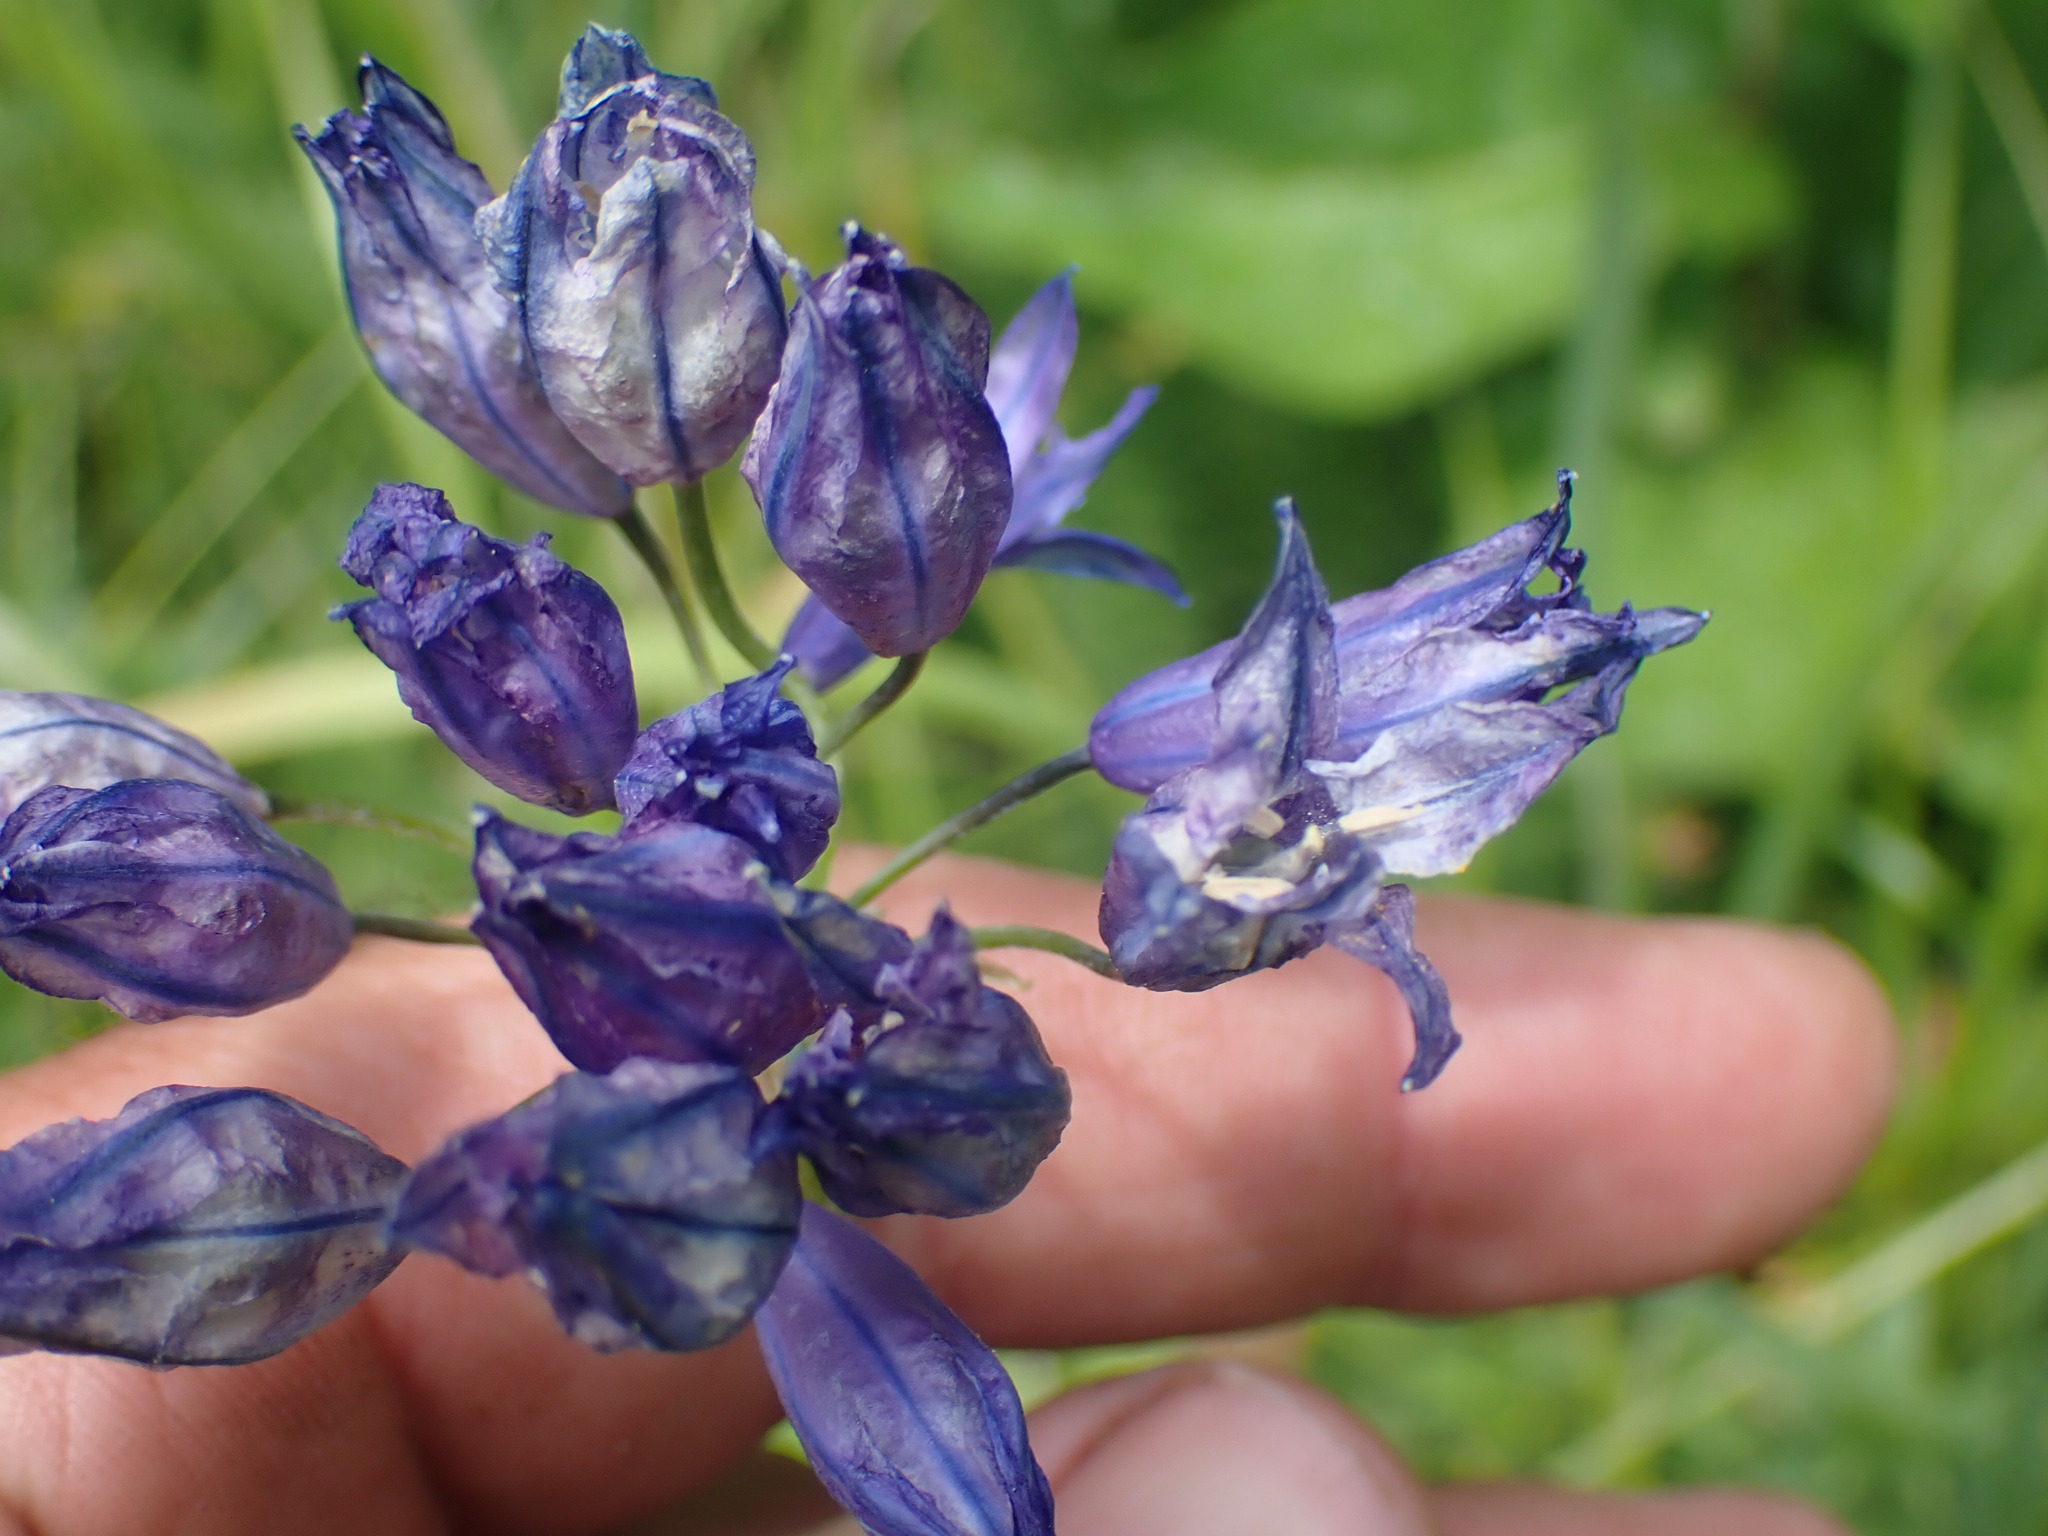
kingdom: Plantae
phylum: Tracheophyta
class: Liliopsida
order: Asparagales
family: Asparagaceae
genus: Triteleia
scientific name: Triteleia grandiflora
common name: Wild hyacinth
